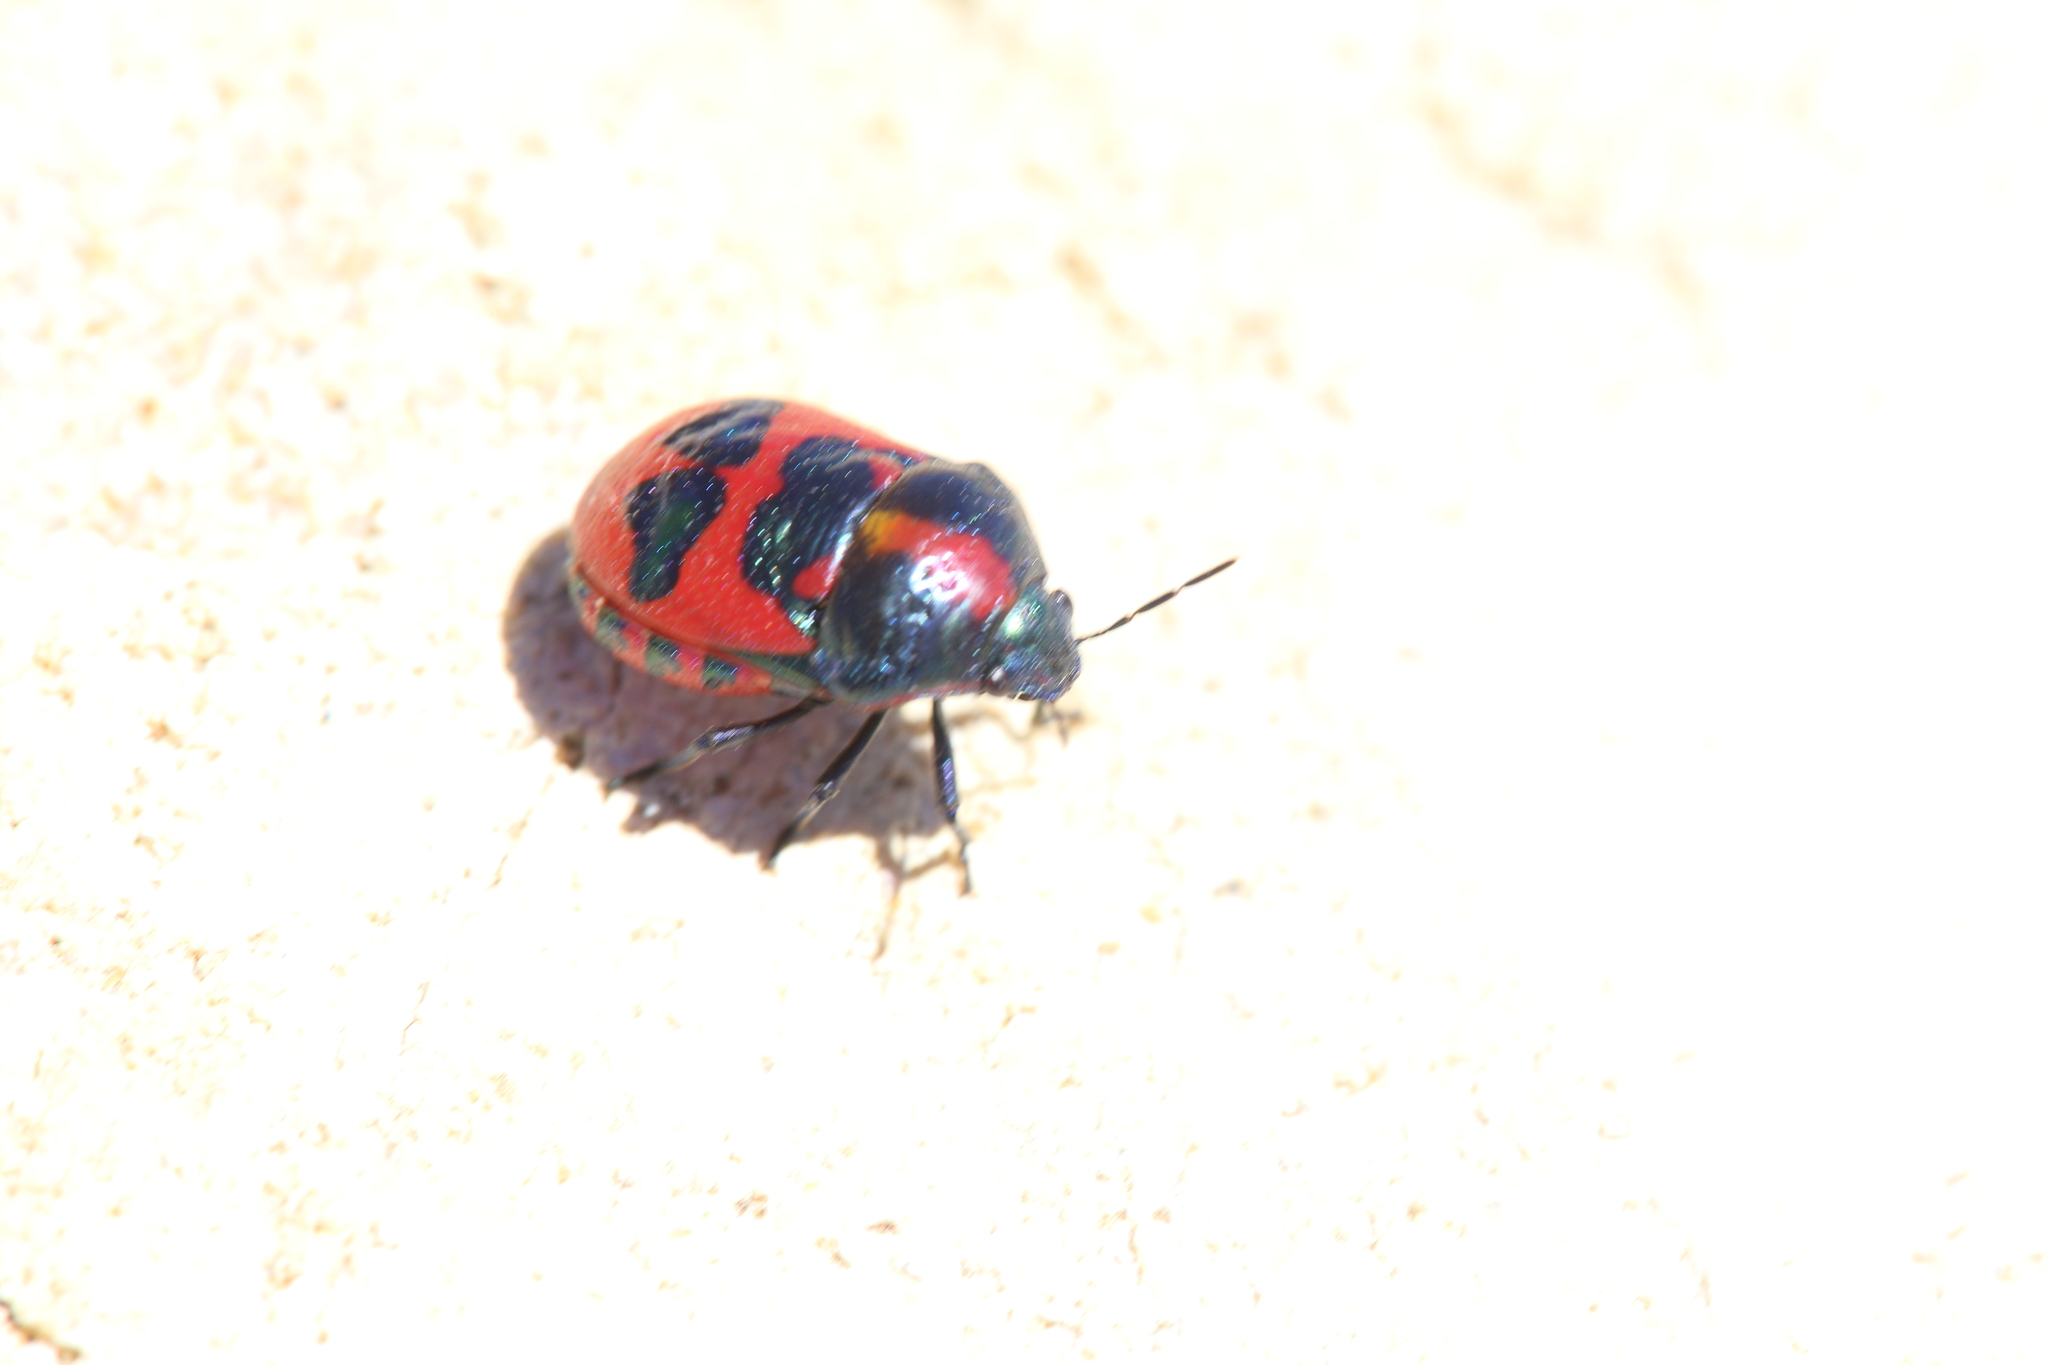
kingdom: Animalia
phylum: Arthropoda
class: Insecta
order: Hemiptera
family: Scutelleridae
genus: Choerocoris
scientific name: Choerocoris paganus
